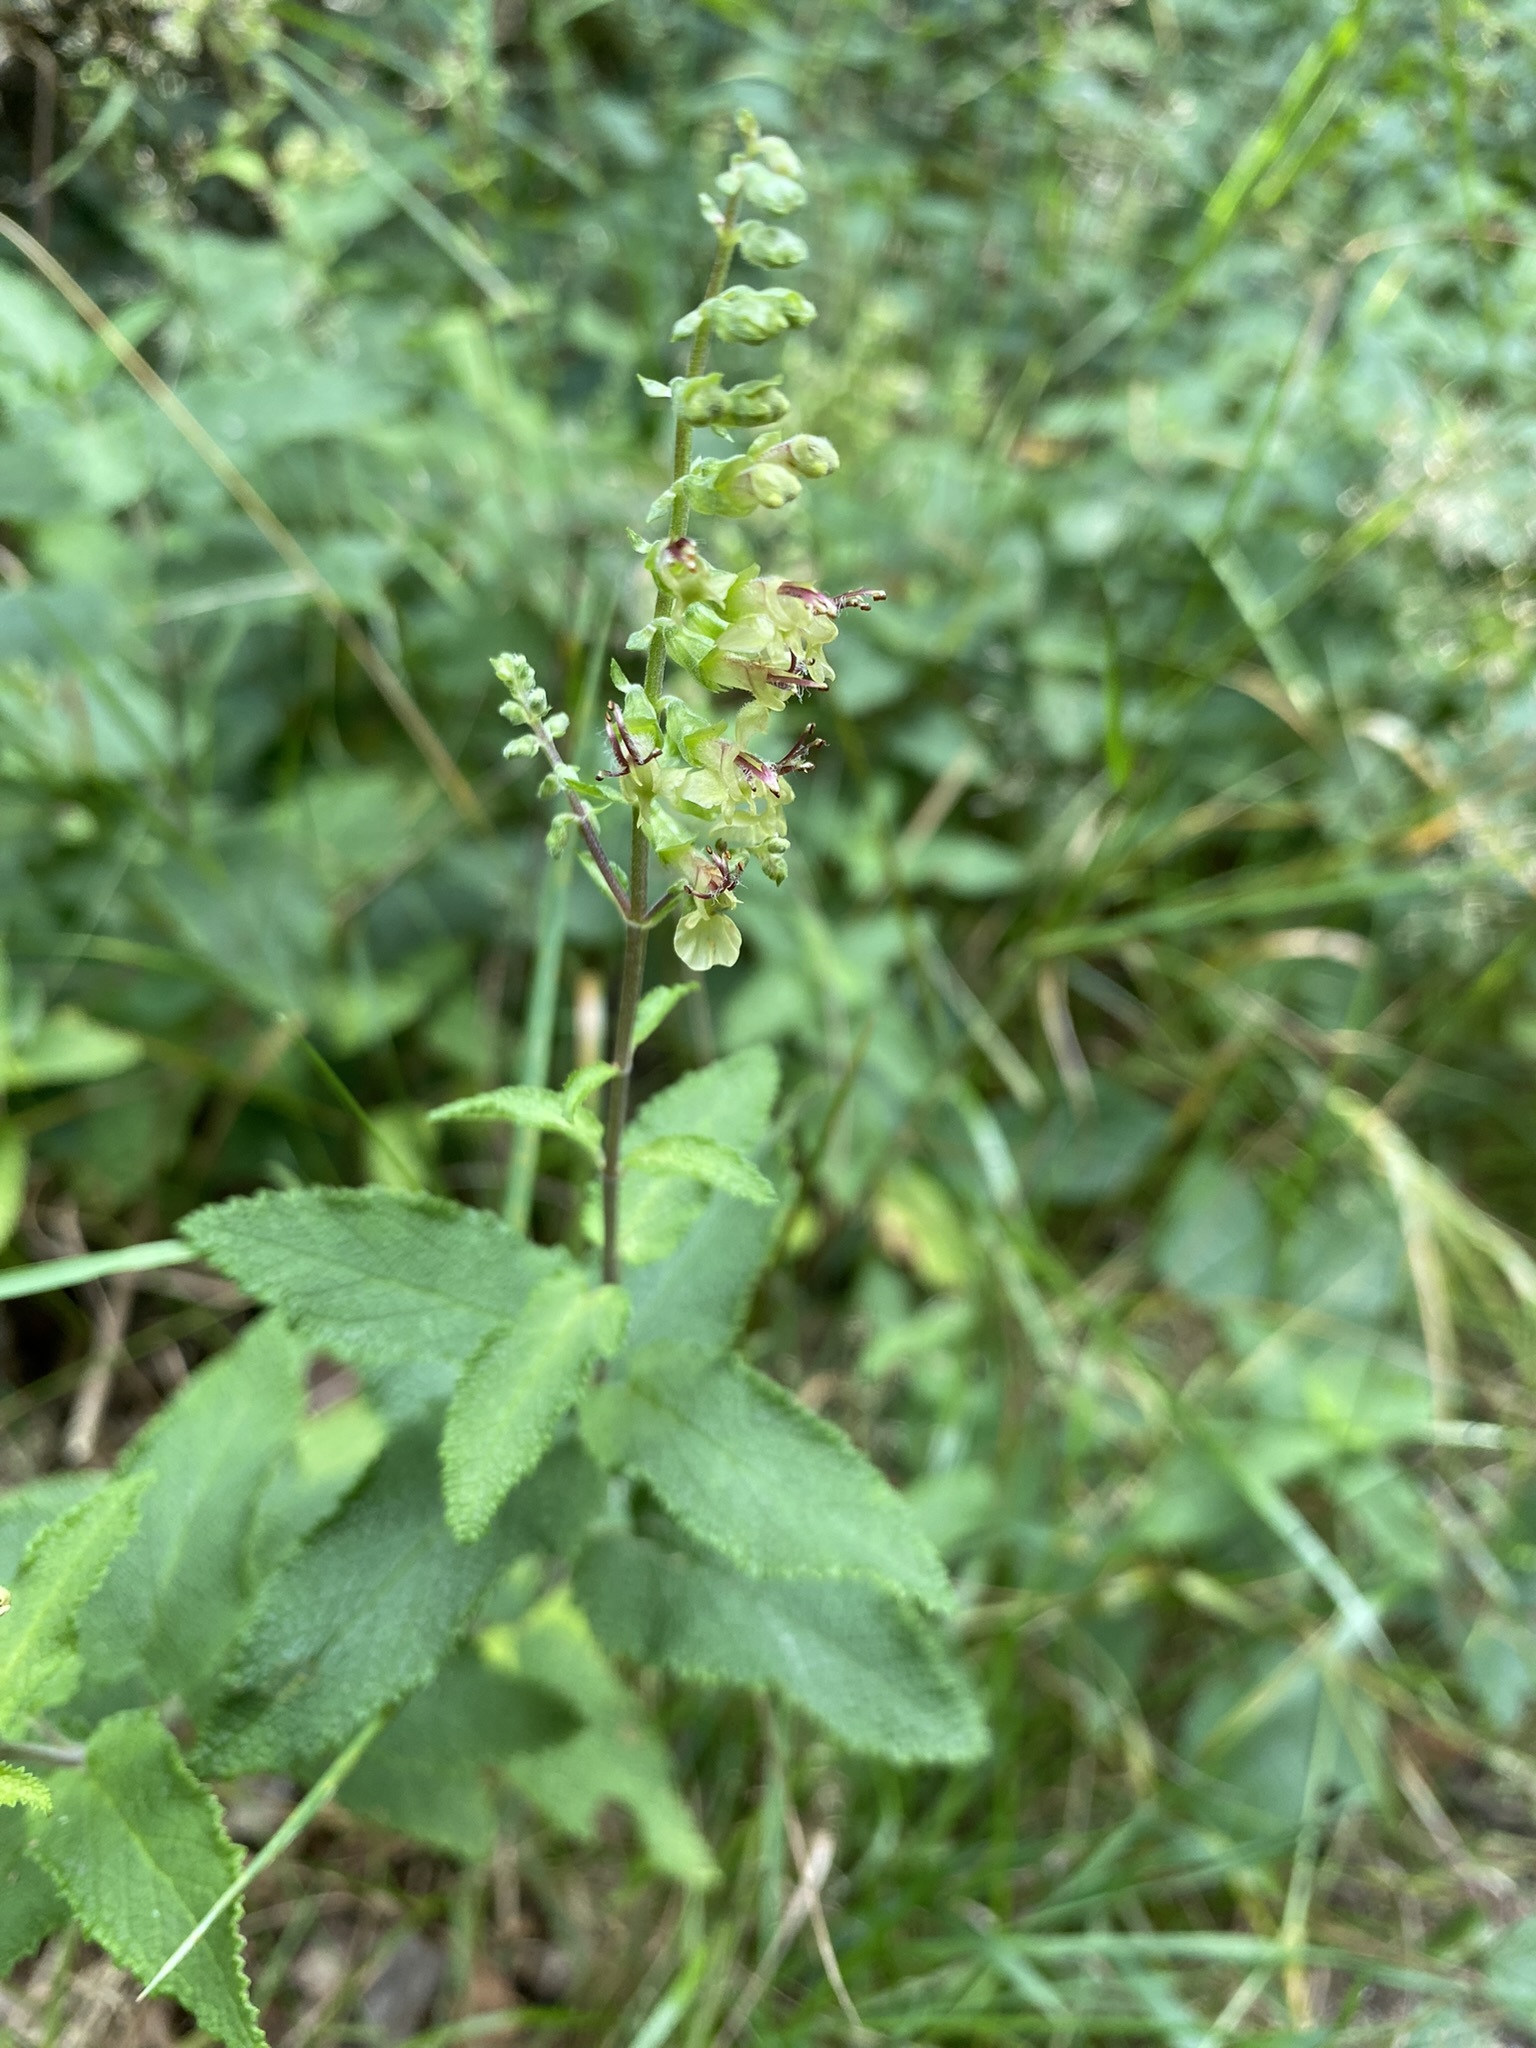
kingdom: Plantae
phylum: Tracheophyta
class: Magnoliopsida
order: Lamiales
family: Lamiaceae
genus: Teucrium
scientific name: Teucrium scorodonia
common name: Woodland germander
